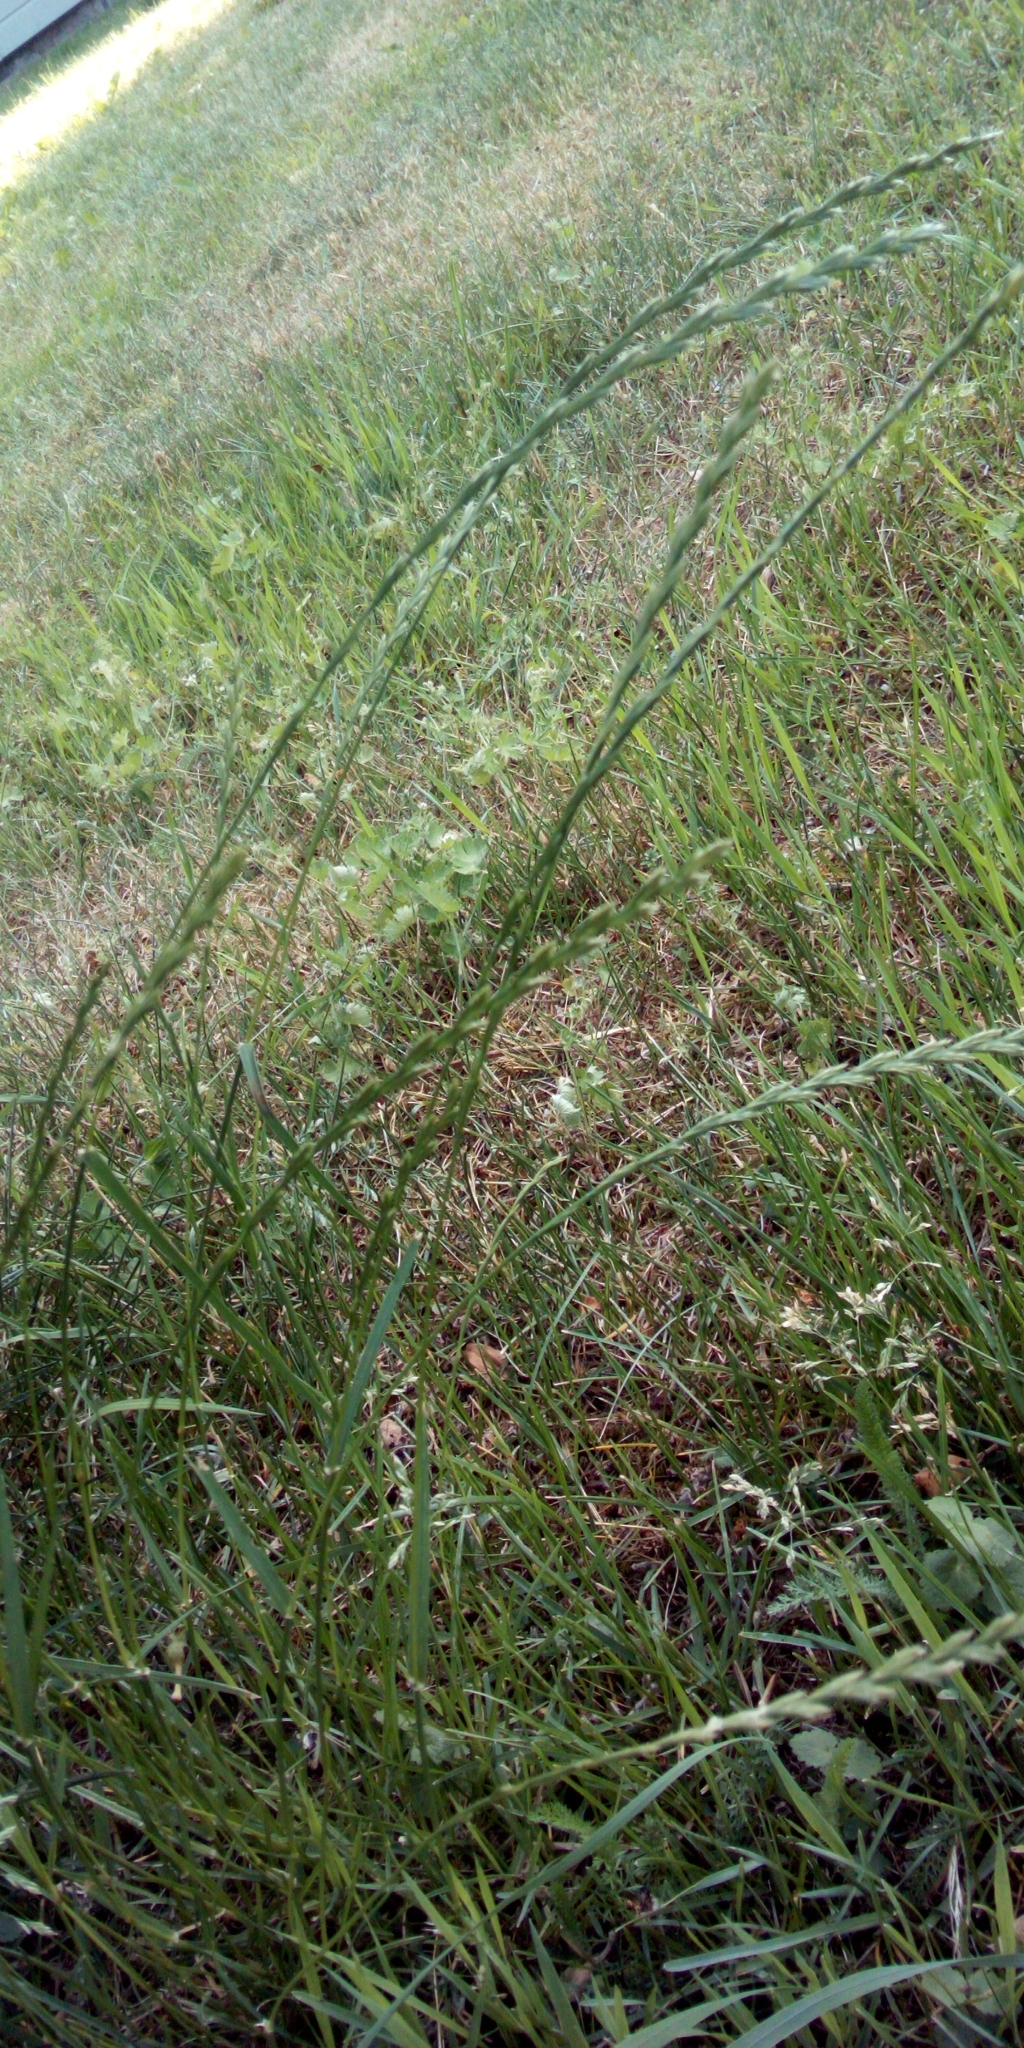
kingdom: Plantae
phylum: Tracheophyta
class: Liliopsida
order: Poales
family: Poaceae
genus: Lolium
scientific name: Lolium perenne
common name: Perennial ryegrass
